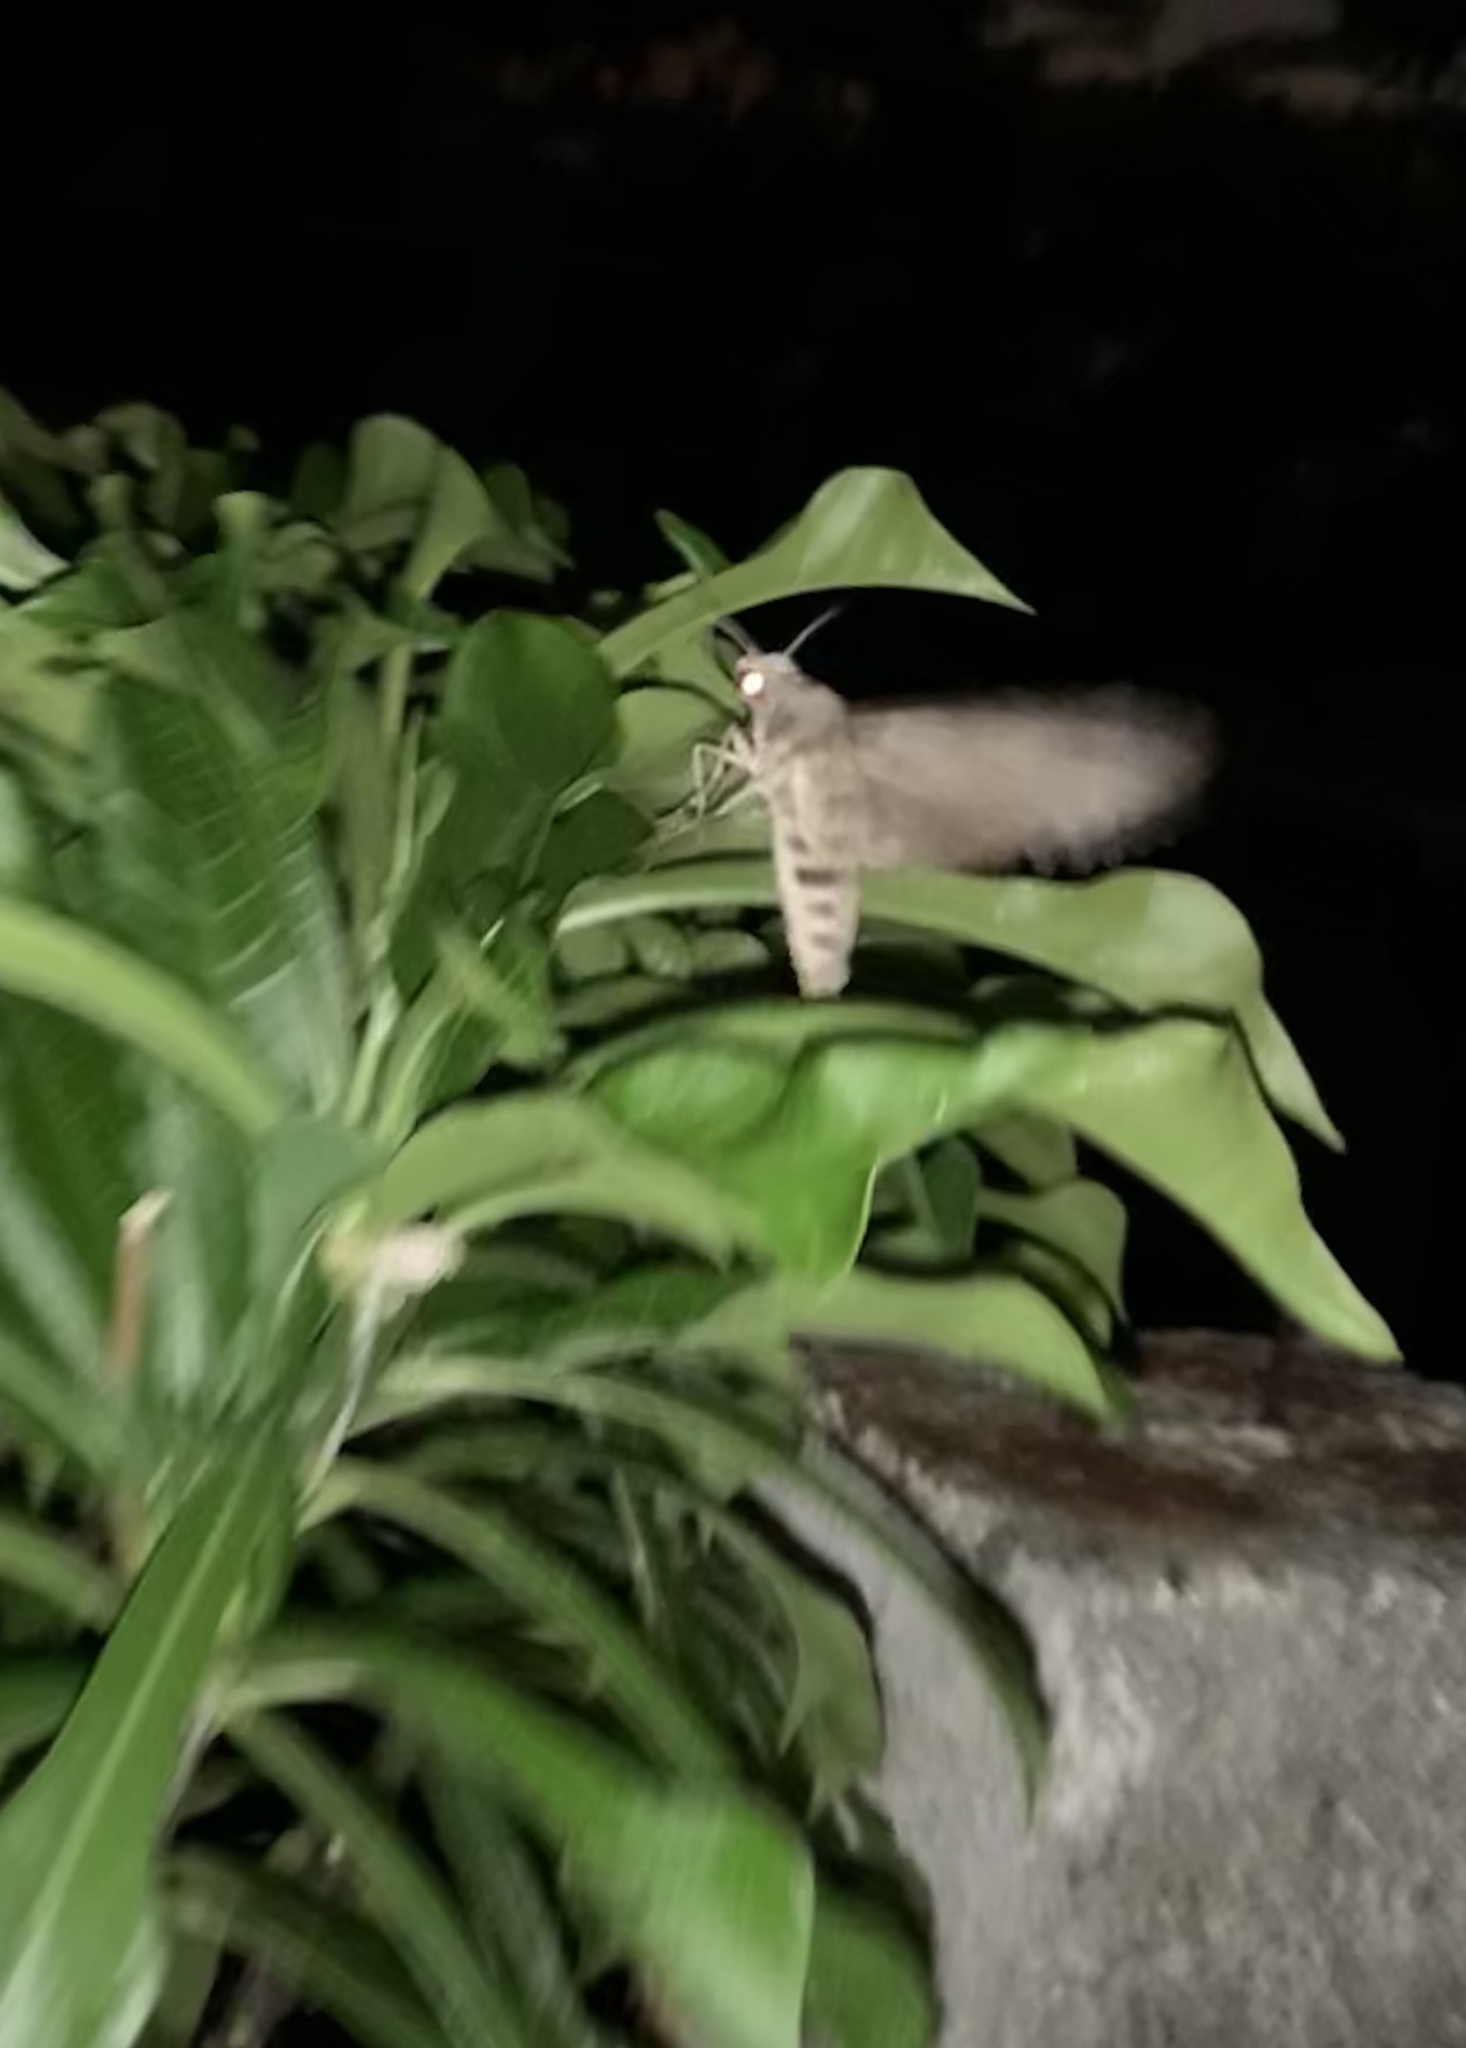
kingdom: Animalia
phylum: Arthropoda
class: Insecta
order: Lepidoptera
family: Sphingidae
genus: Pseudosphinx
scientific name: Pseudosphinx tetrio
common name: Tetrio sphinx
